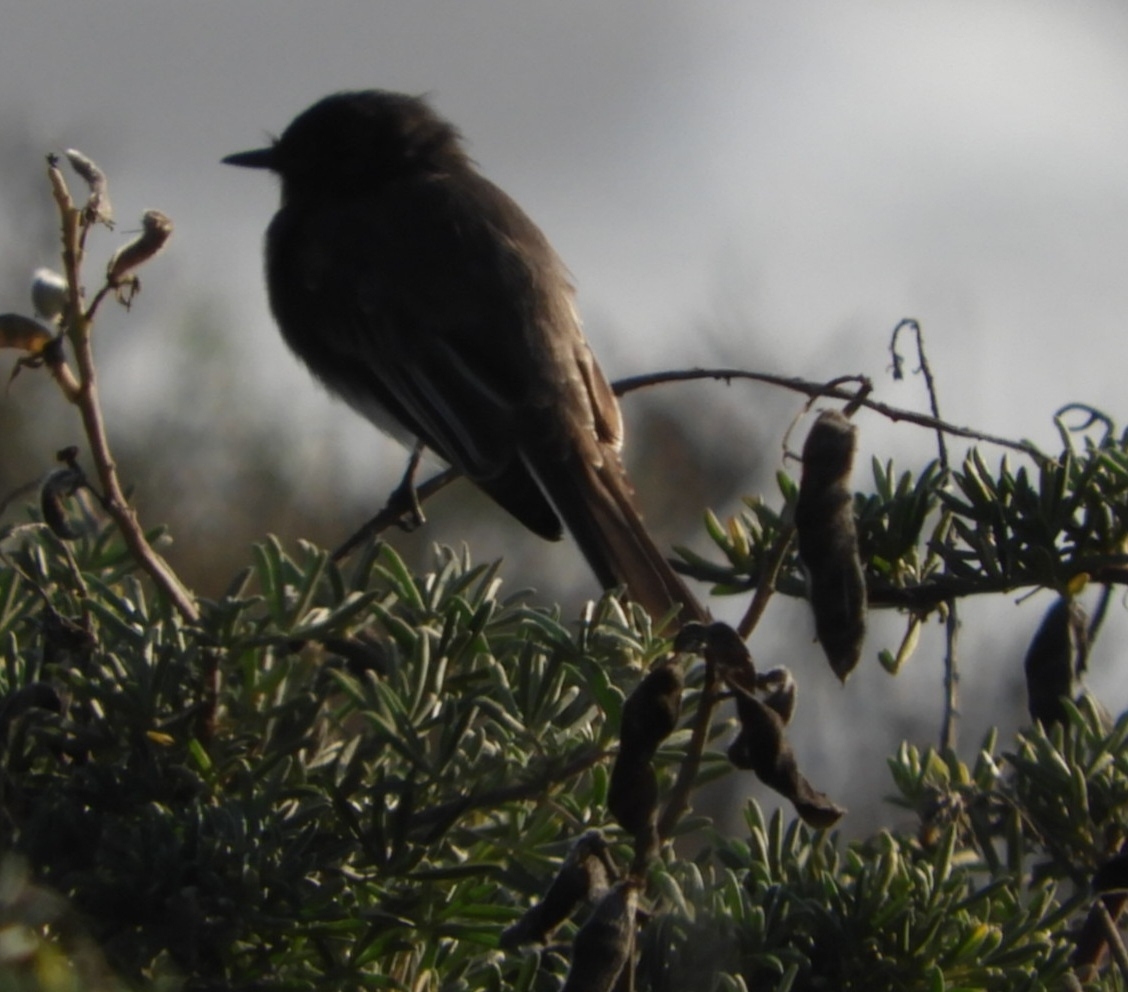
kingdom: Animalia
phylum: Chordata
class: Aves
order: Passeriformes
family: Tyrannidae
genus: Sayornis
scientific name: Sayornis nigricans
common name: Black phoebe
